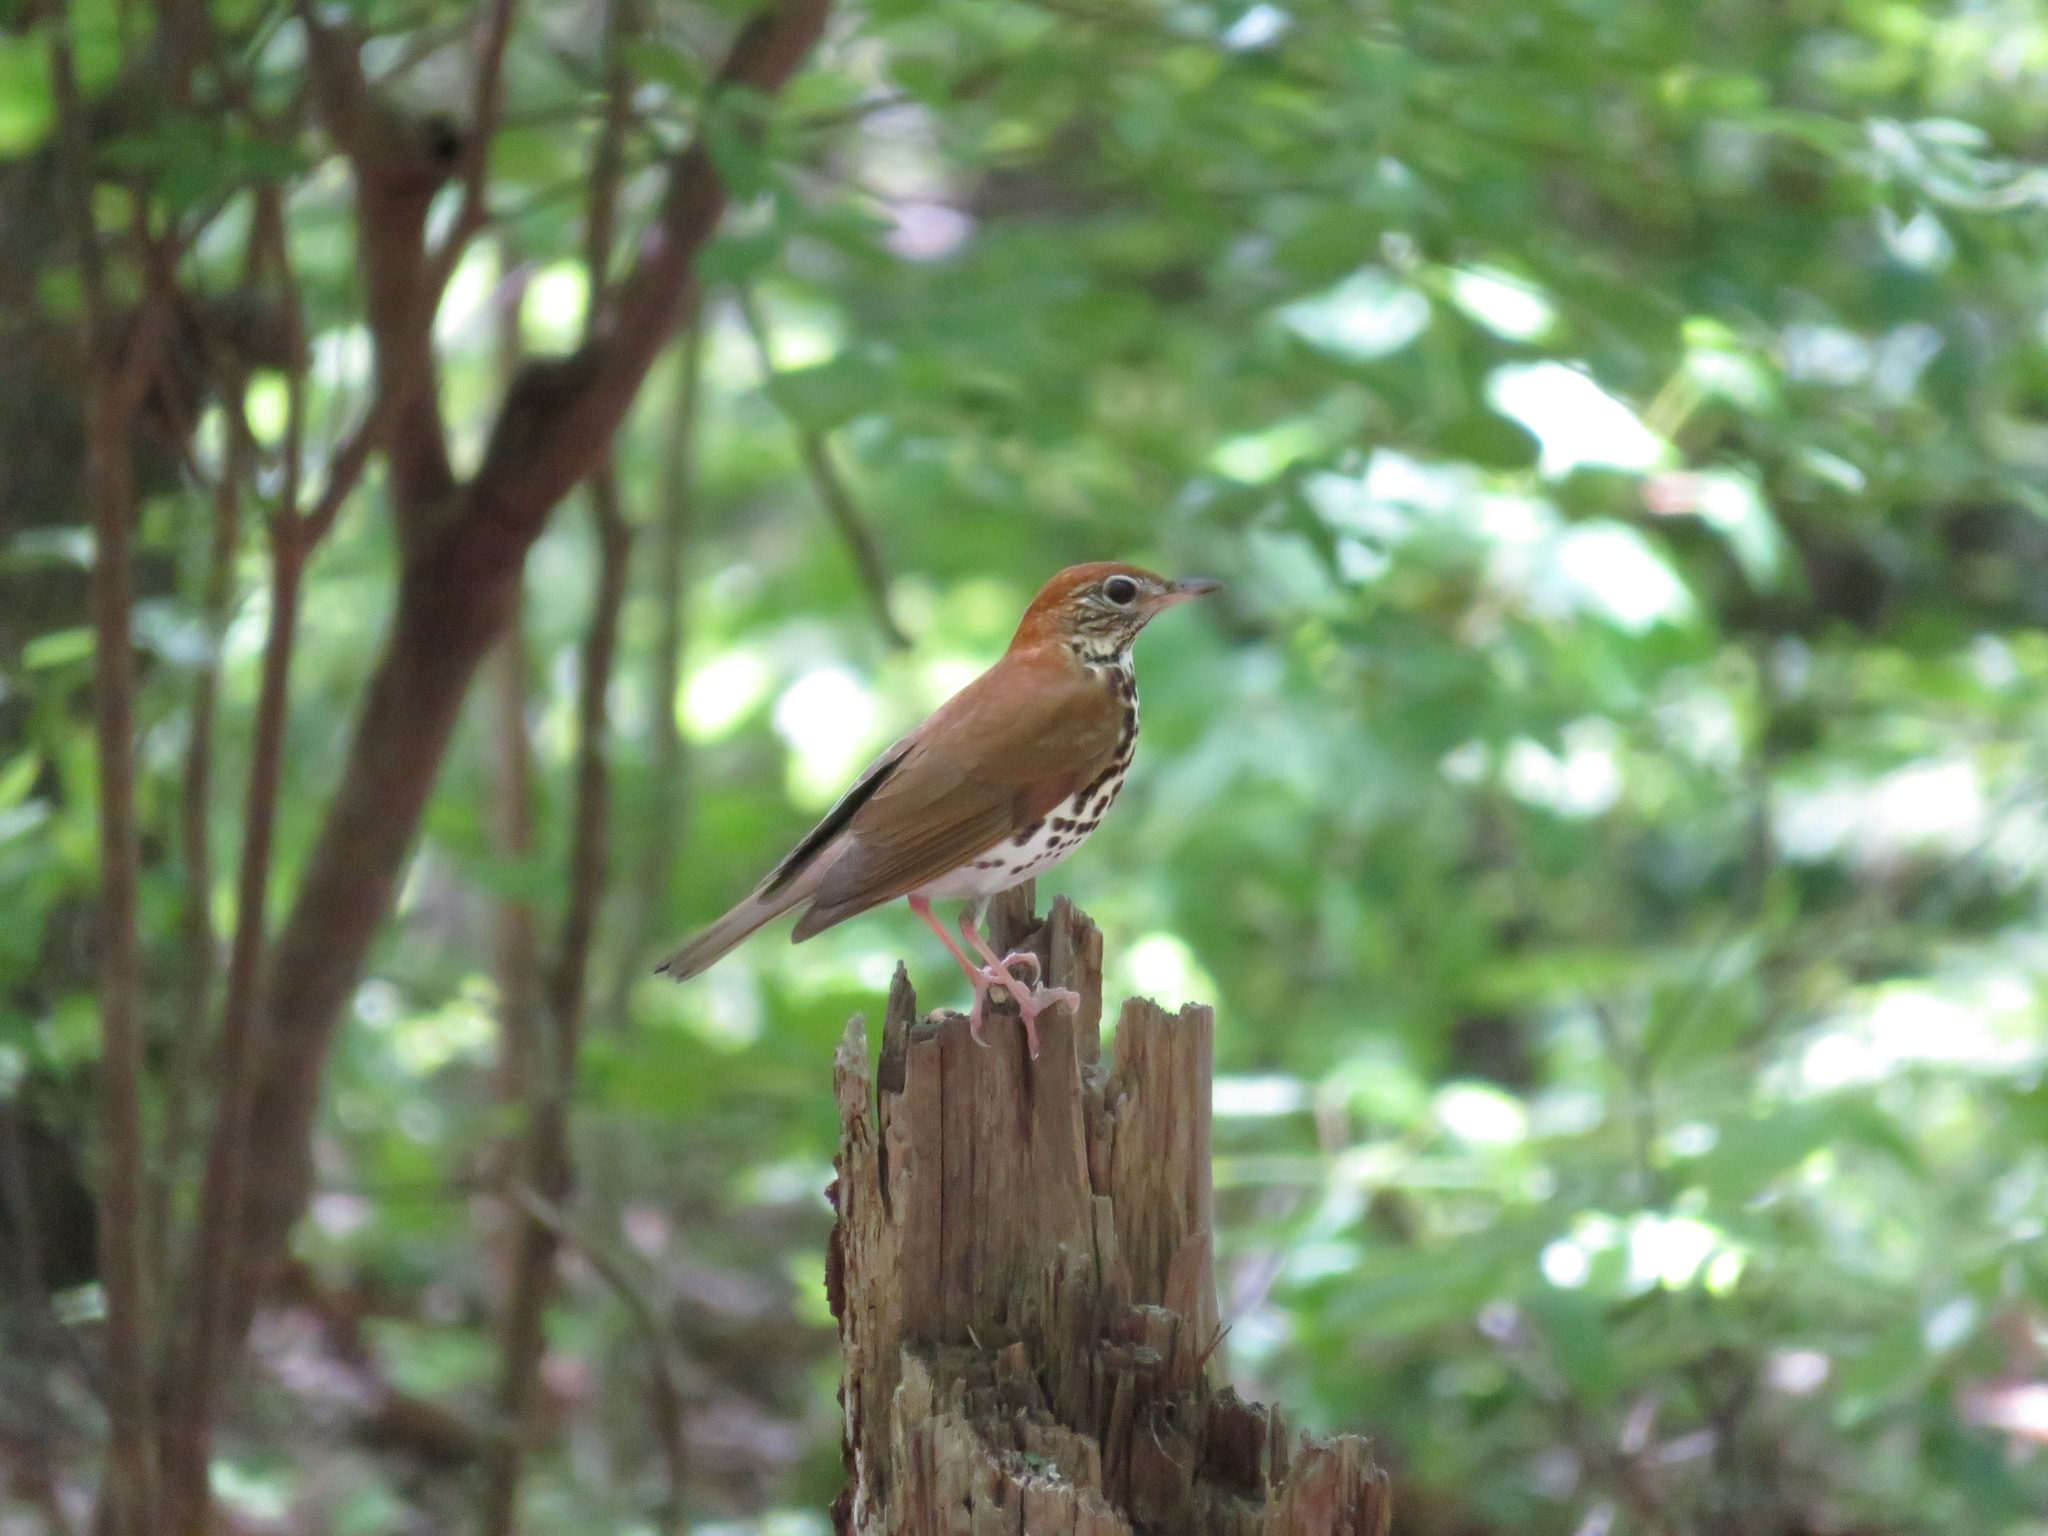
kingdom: Animalia
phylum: Chordata
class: Aves
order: Passeriformes
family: Turdidae
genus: Hylocichla
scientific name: Hylocichla mustelina
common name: Wood thrush
